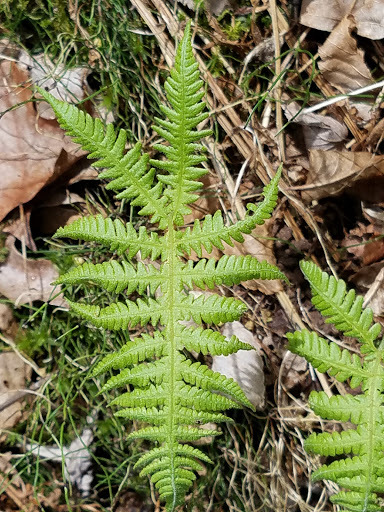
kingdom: Plantae
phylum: Tracheophyta
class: Polypodiopsida
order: Polypodiales
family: Thelypteridaceae
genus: Phegopteris
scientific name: Phegopteris connectilis
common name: Beech fern
